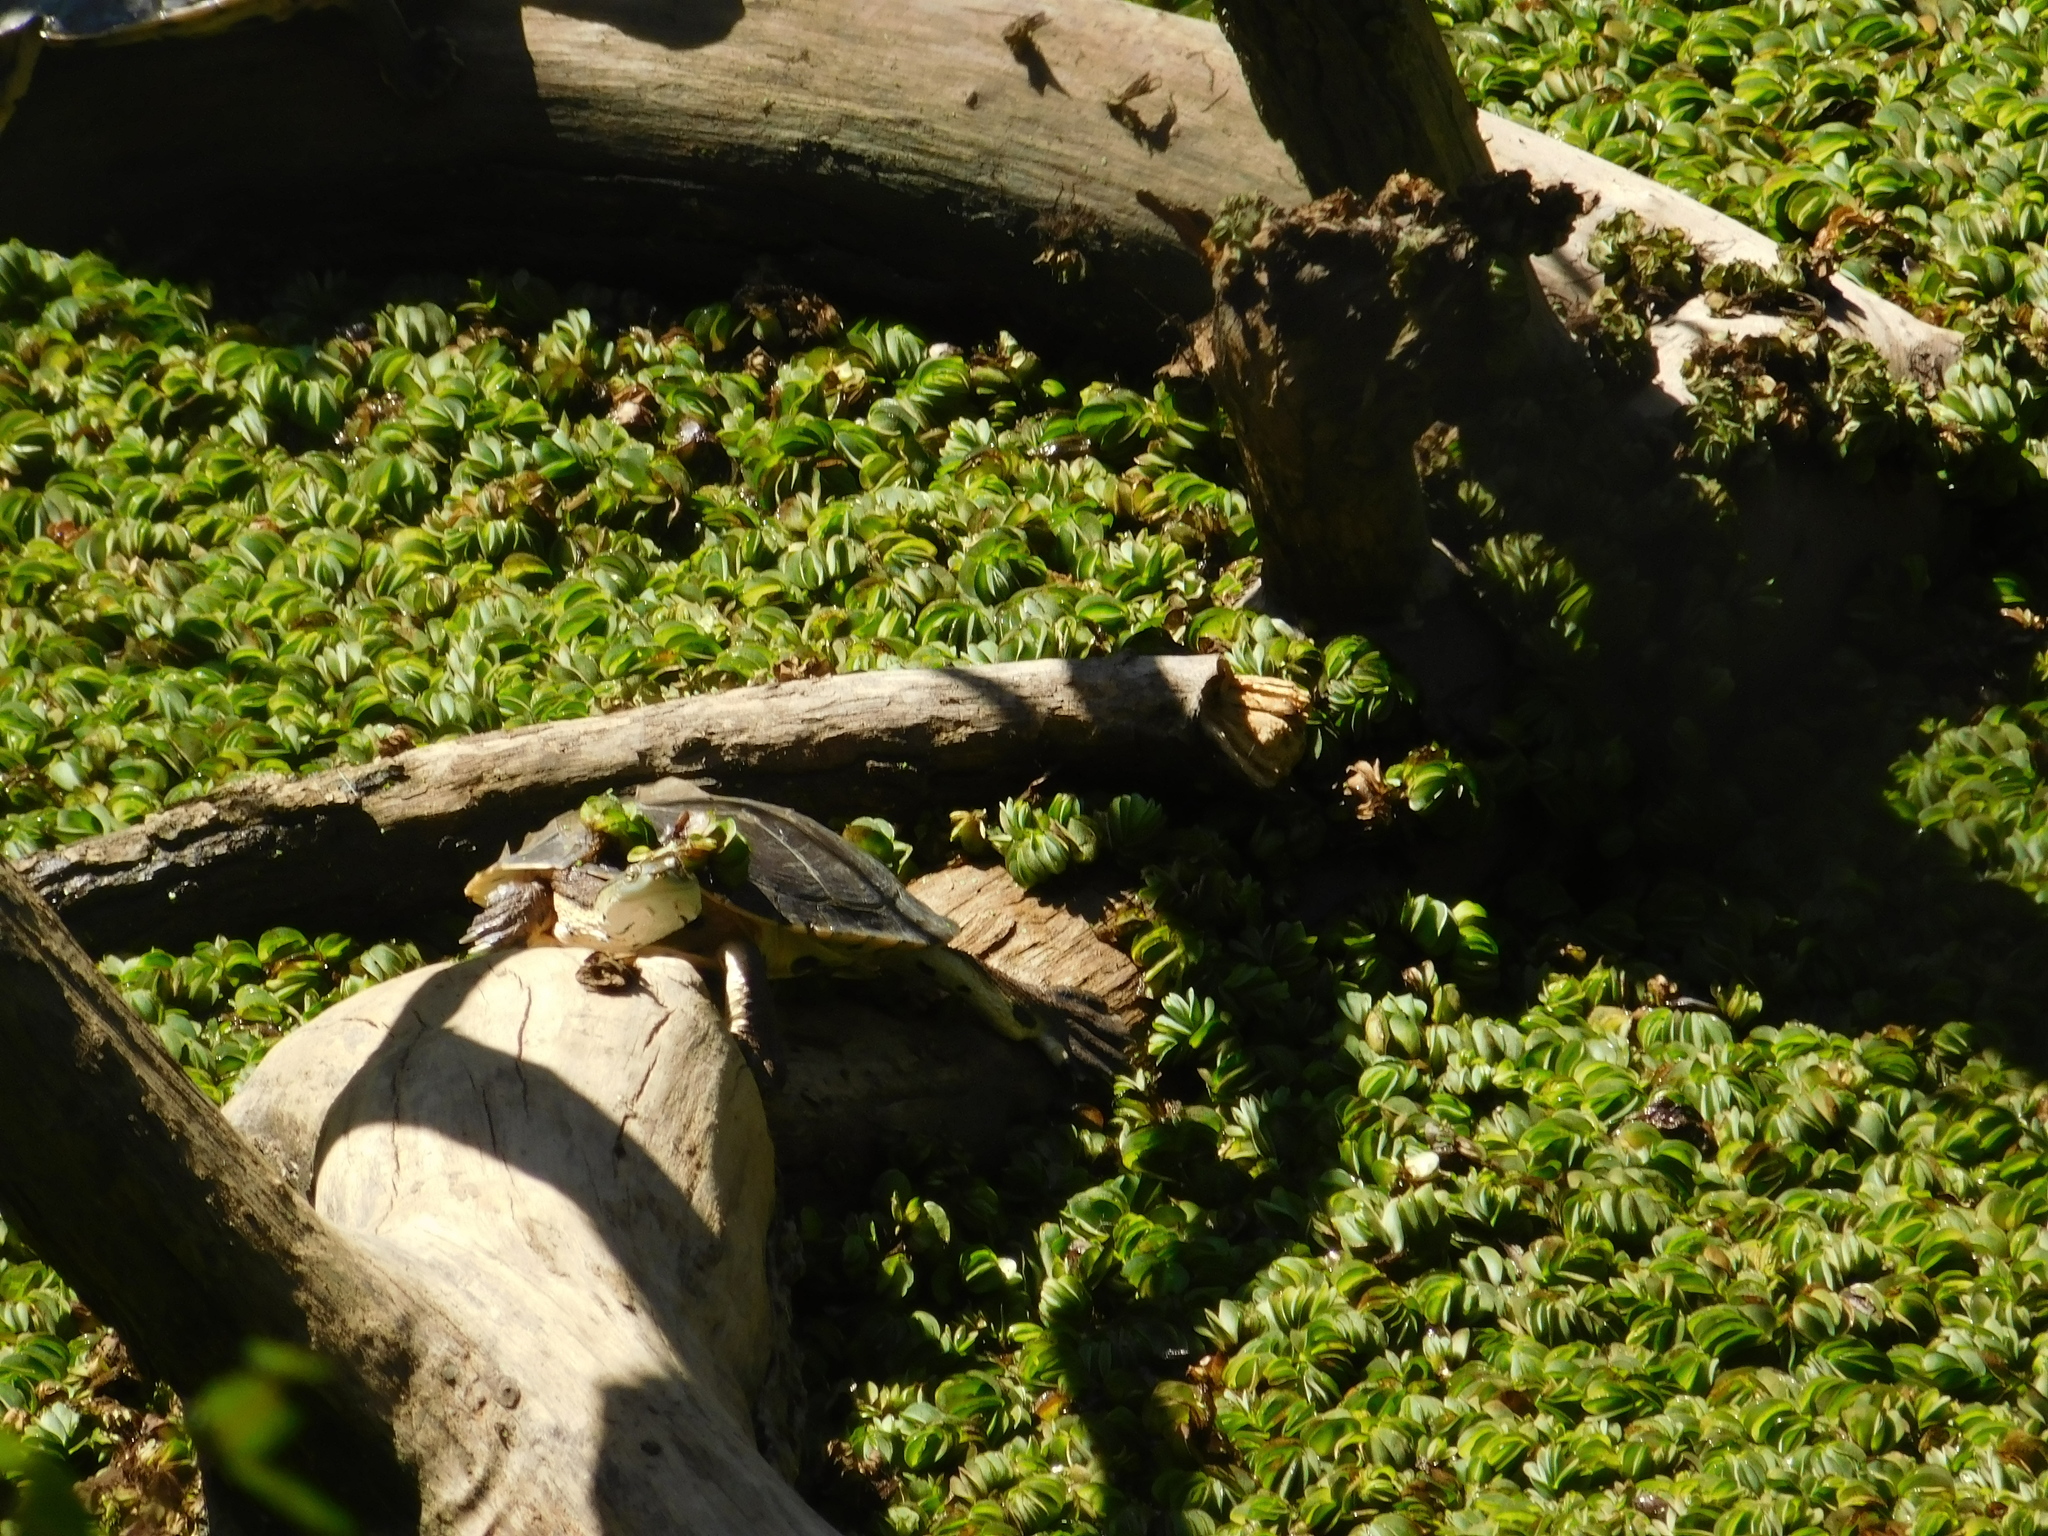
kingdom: Animalia
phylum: Chordata
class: Testudines
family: Chelidae
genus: Phrynops
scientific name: Phrynops hilarii
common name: Side-necked turtle of saint hillaire
